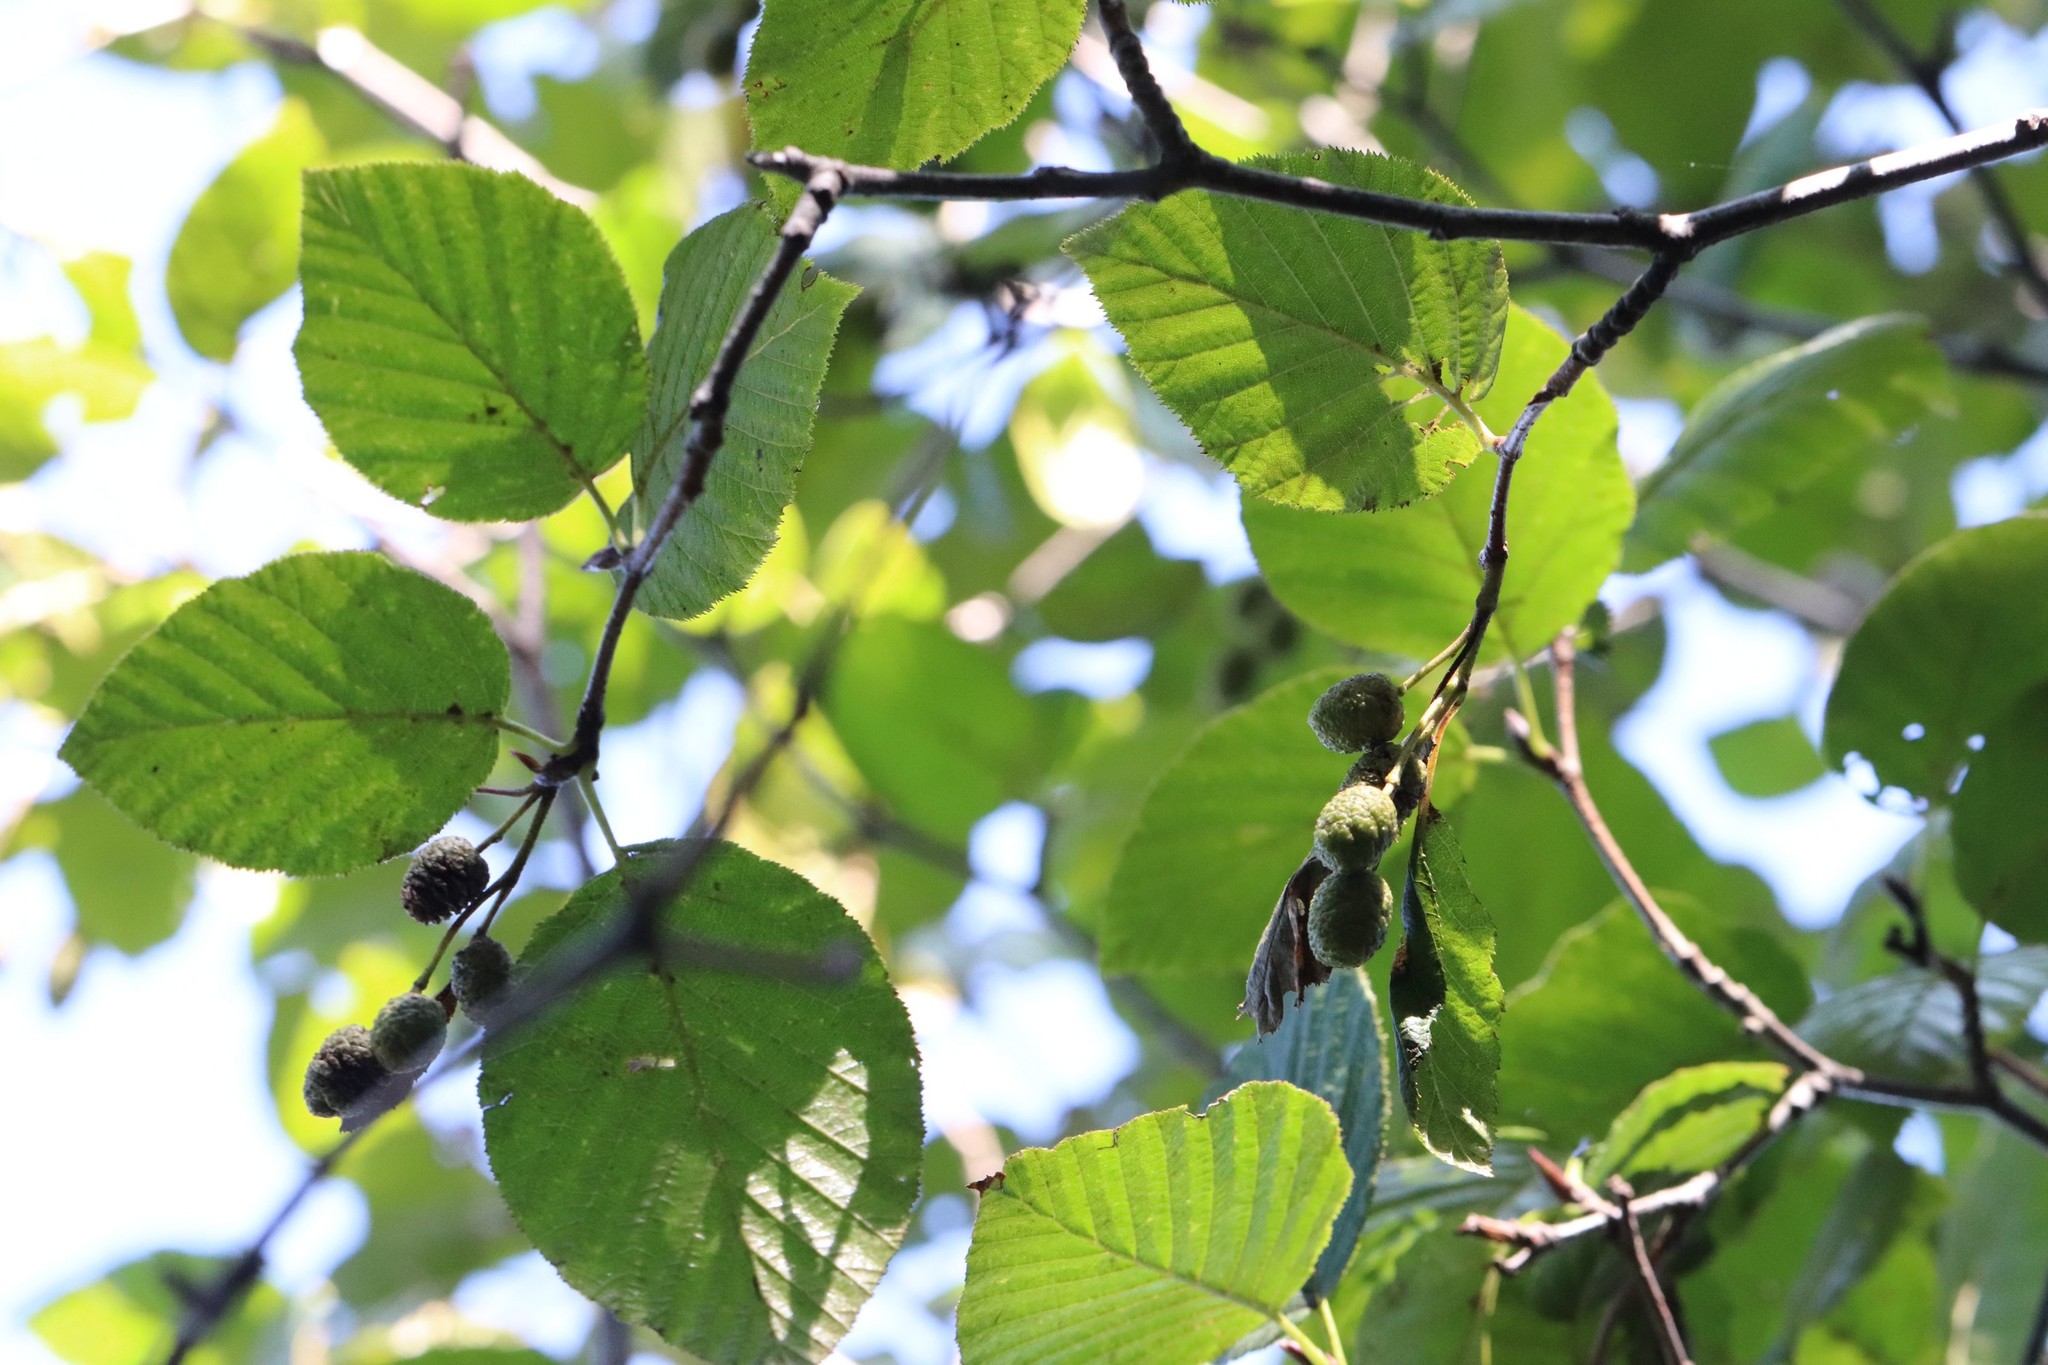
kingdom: Plantae
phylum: Tracheophyta
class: Magnoliopsida
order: Fagales
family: Betulaceae
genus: Alnus
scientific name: Alnus mandschurica
